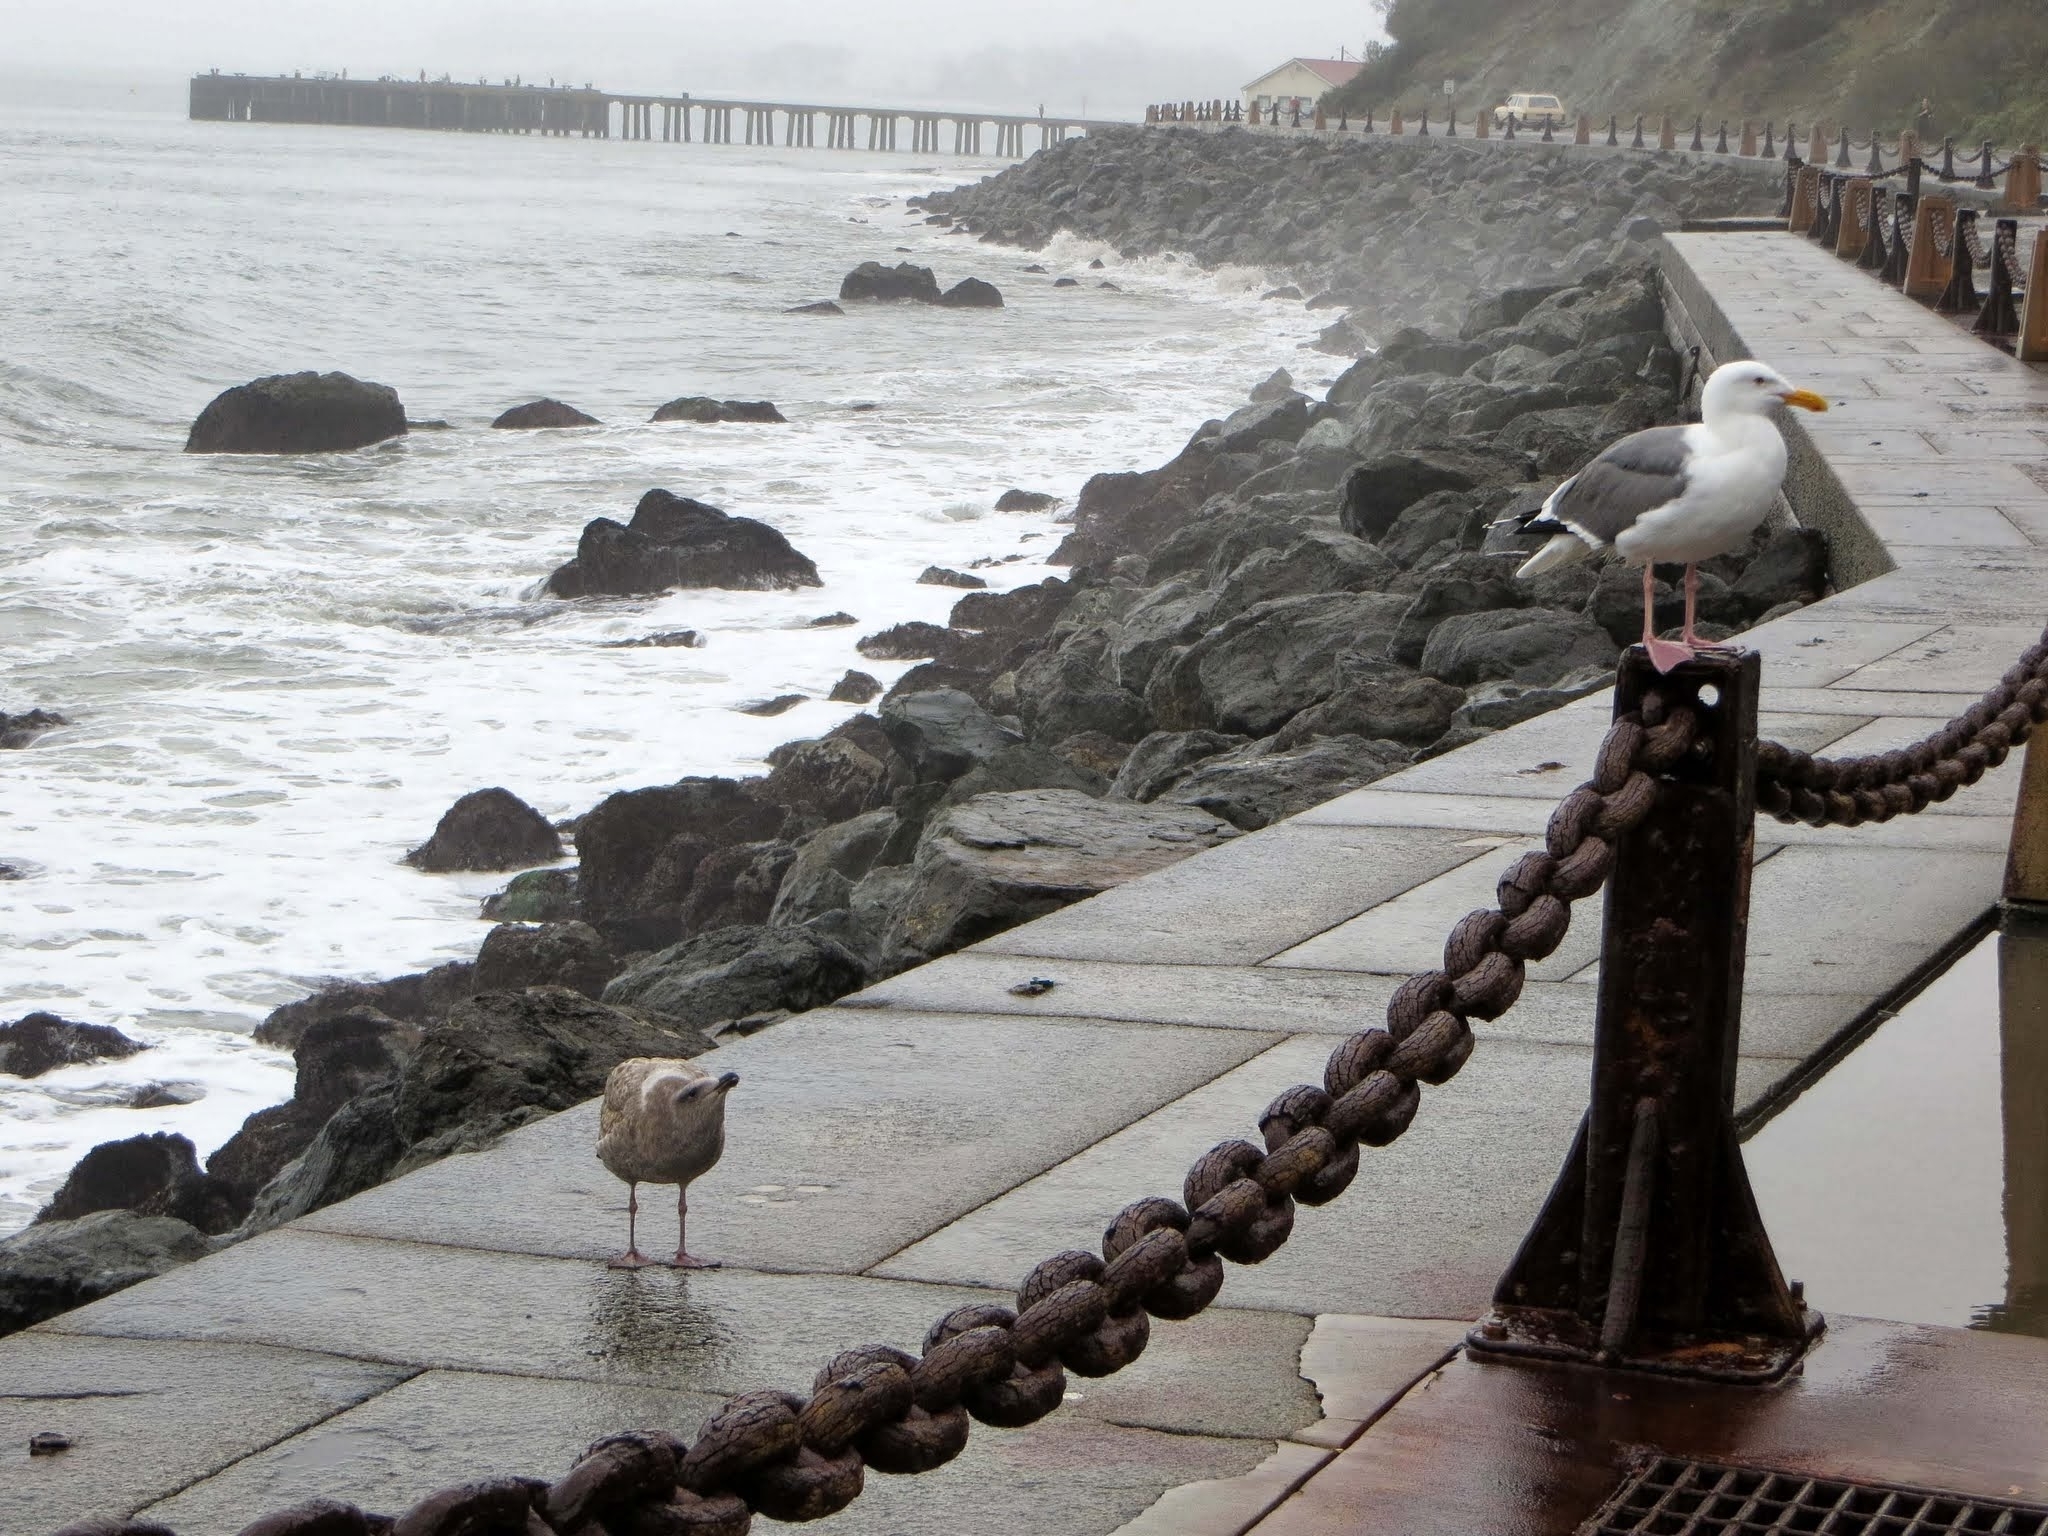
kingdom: Animalia
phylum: Chordata
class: Aves
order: Charadriiformes
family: Laridae
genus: Larus
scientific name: Larus occidentalis
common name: Western gull
